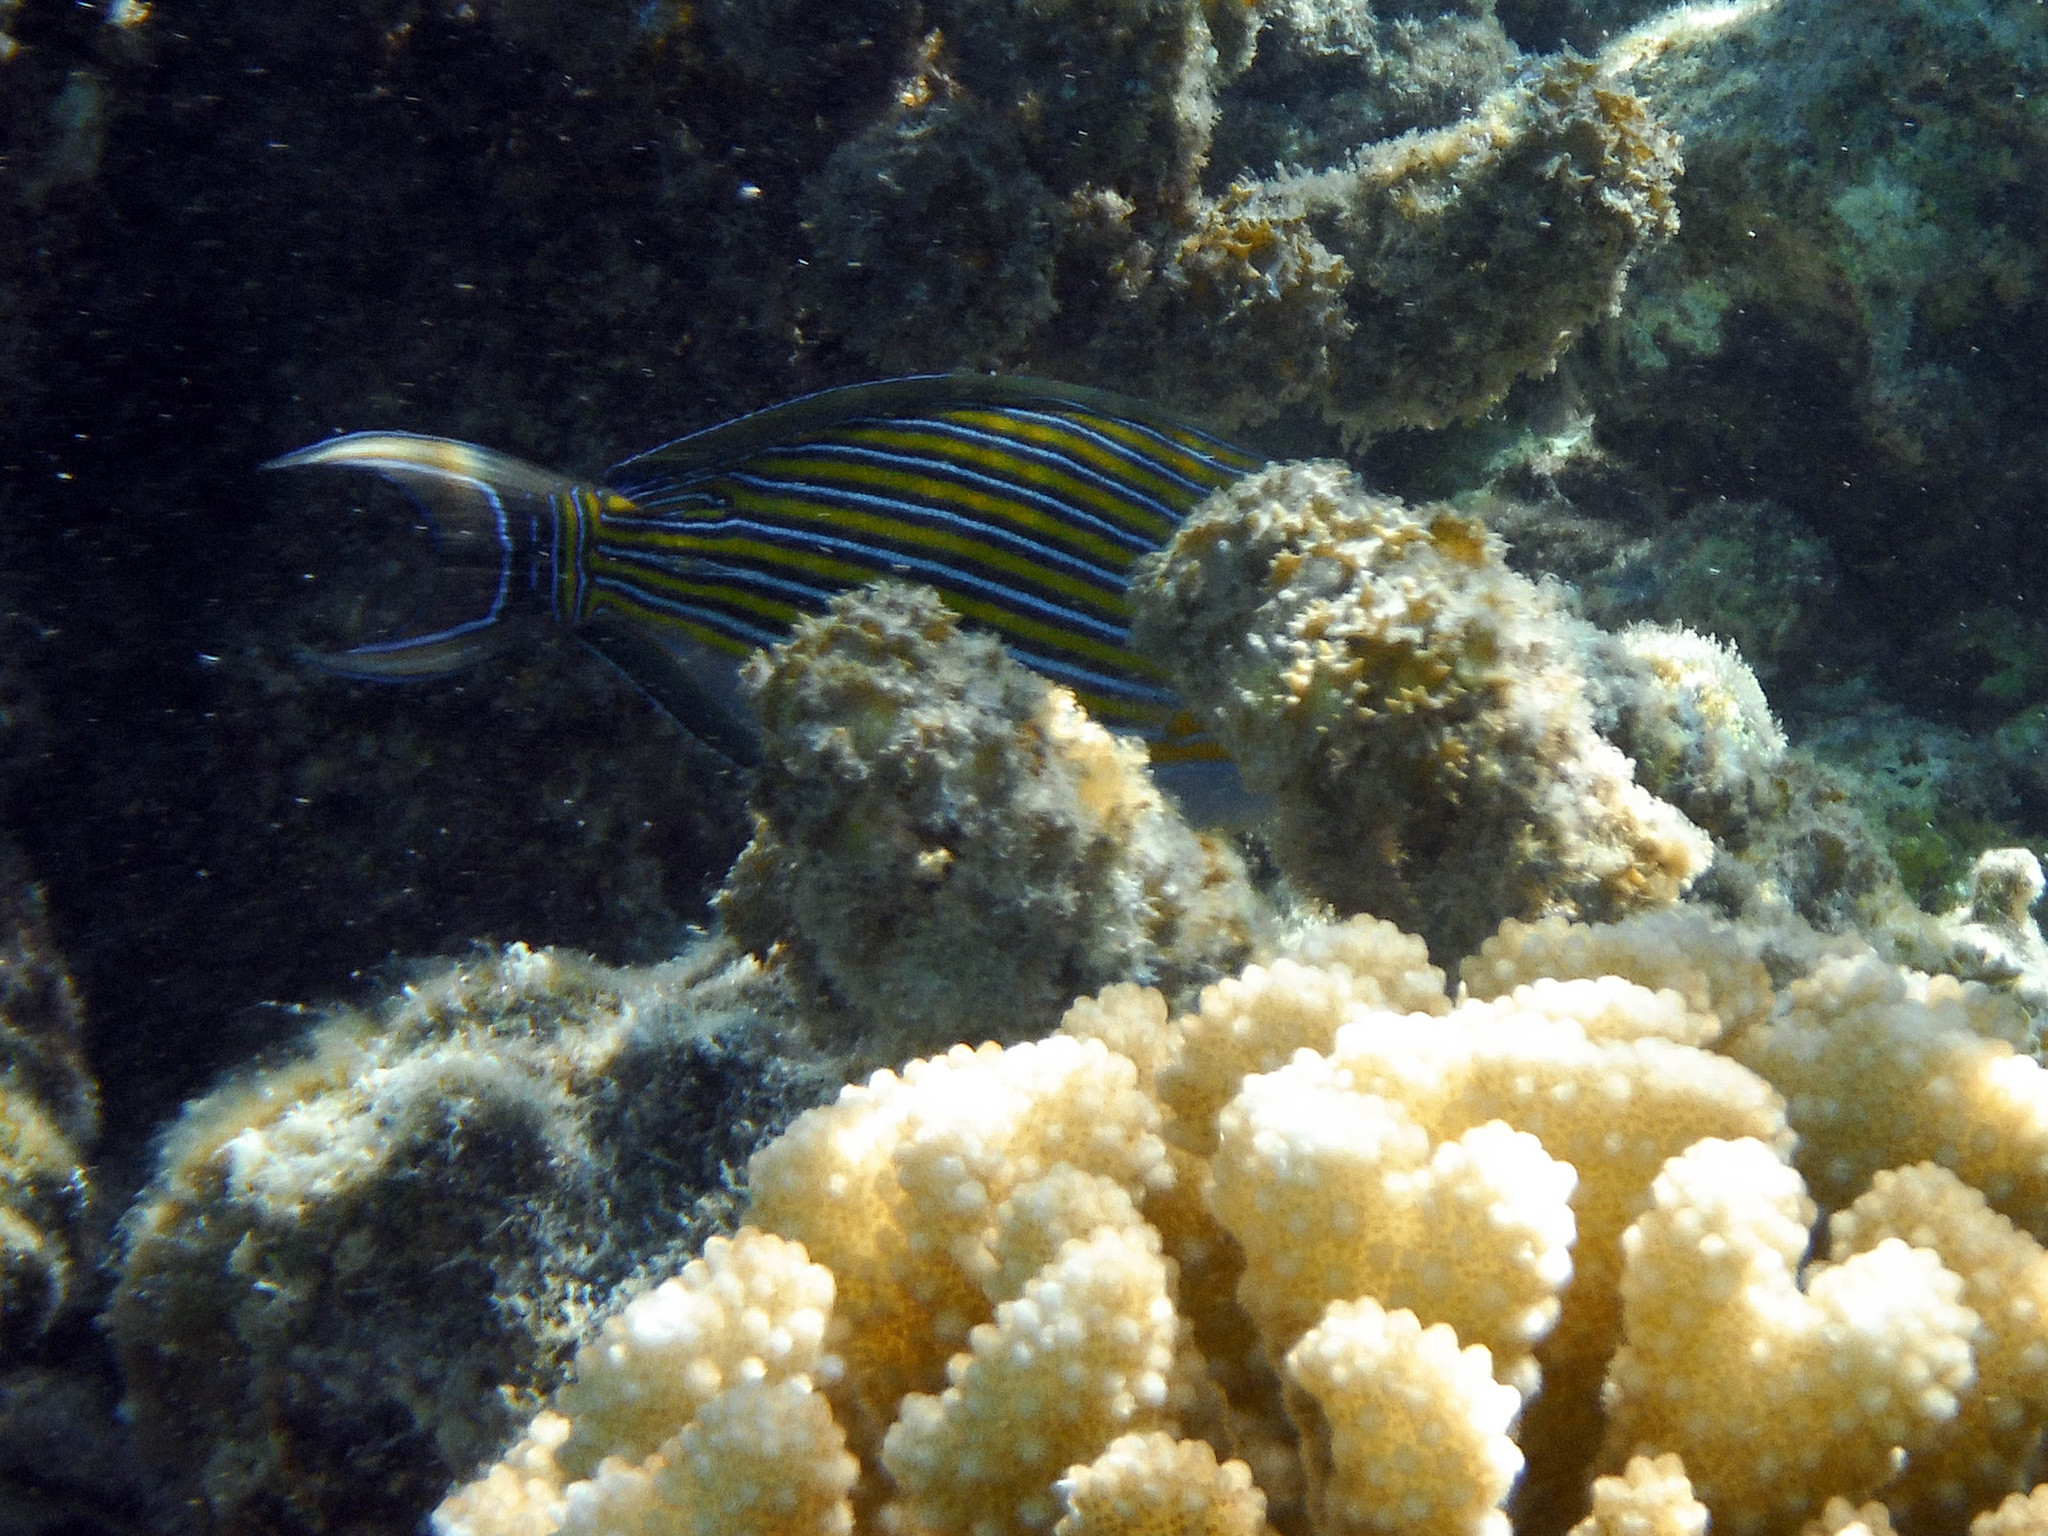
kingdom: Animalia
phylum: Chordata
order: Perciformes
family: Acanthuridae
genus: Acanthurus
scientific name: Acanthurus lineatus
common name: Striped surgeonfish
